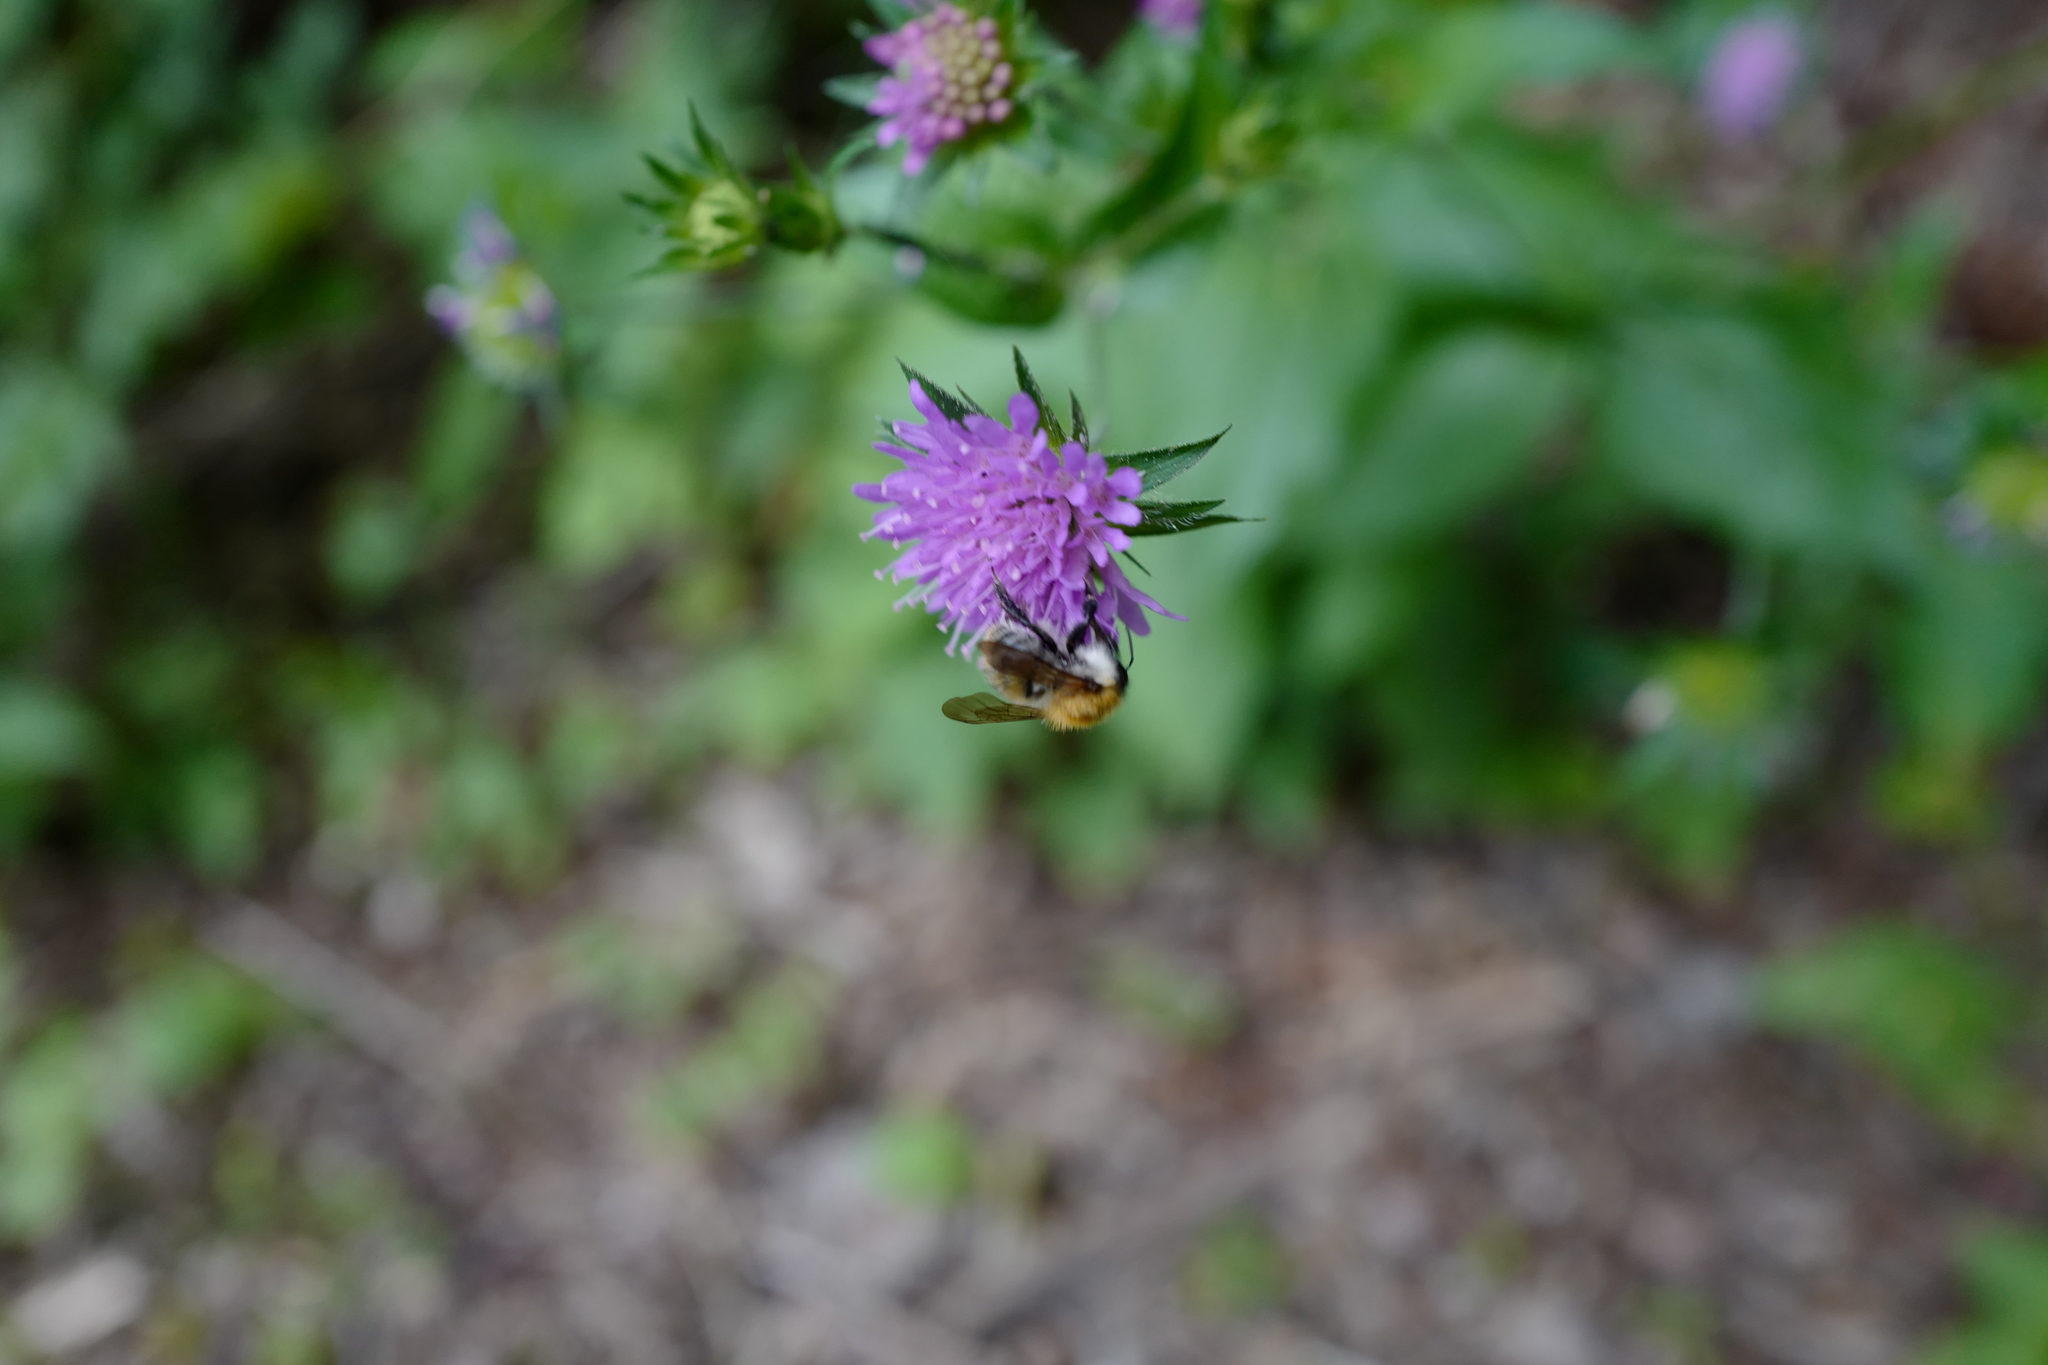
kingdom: Animalia
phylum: Arthropoda
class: Insecta
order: Hymenoptera
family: Apidae
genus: Bombus
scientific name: Bombus pascuorum
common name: Common carder bee
